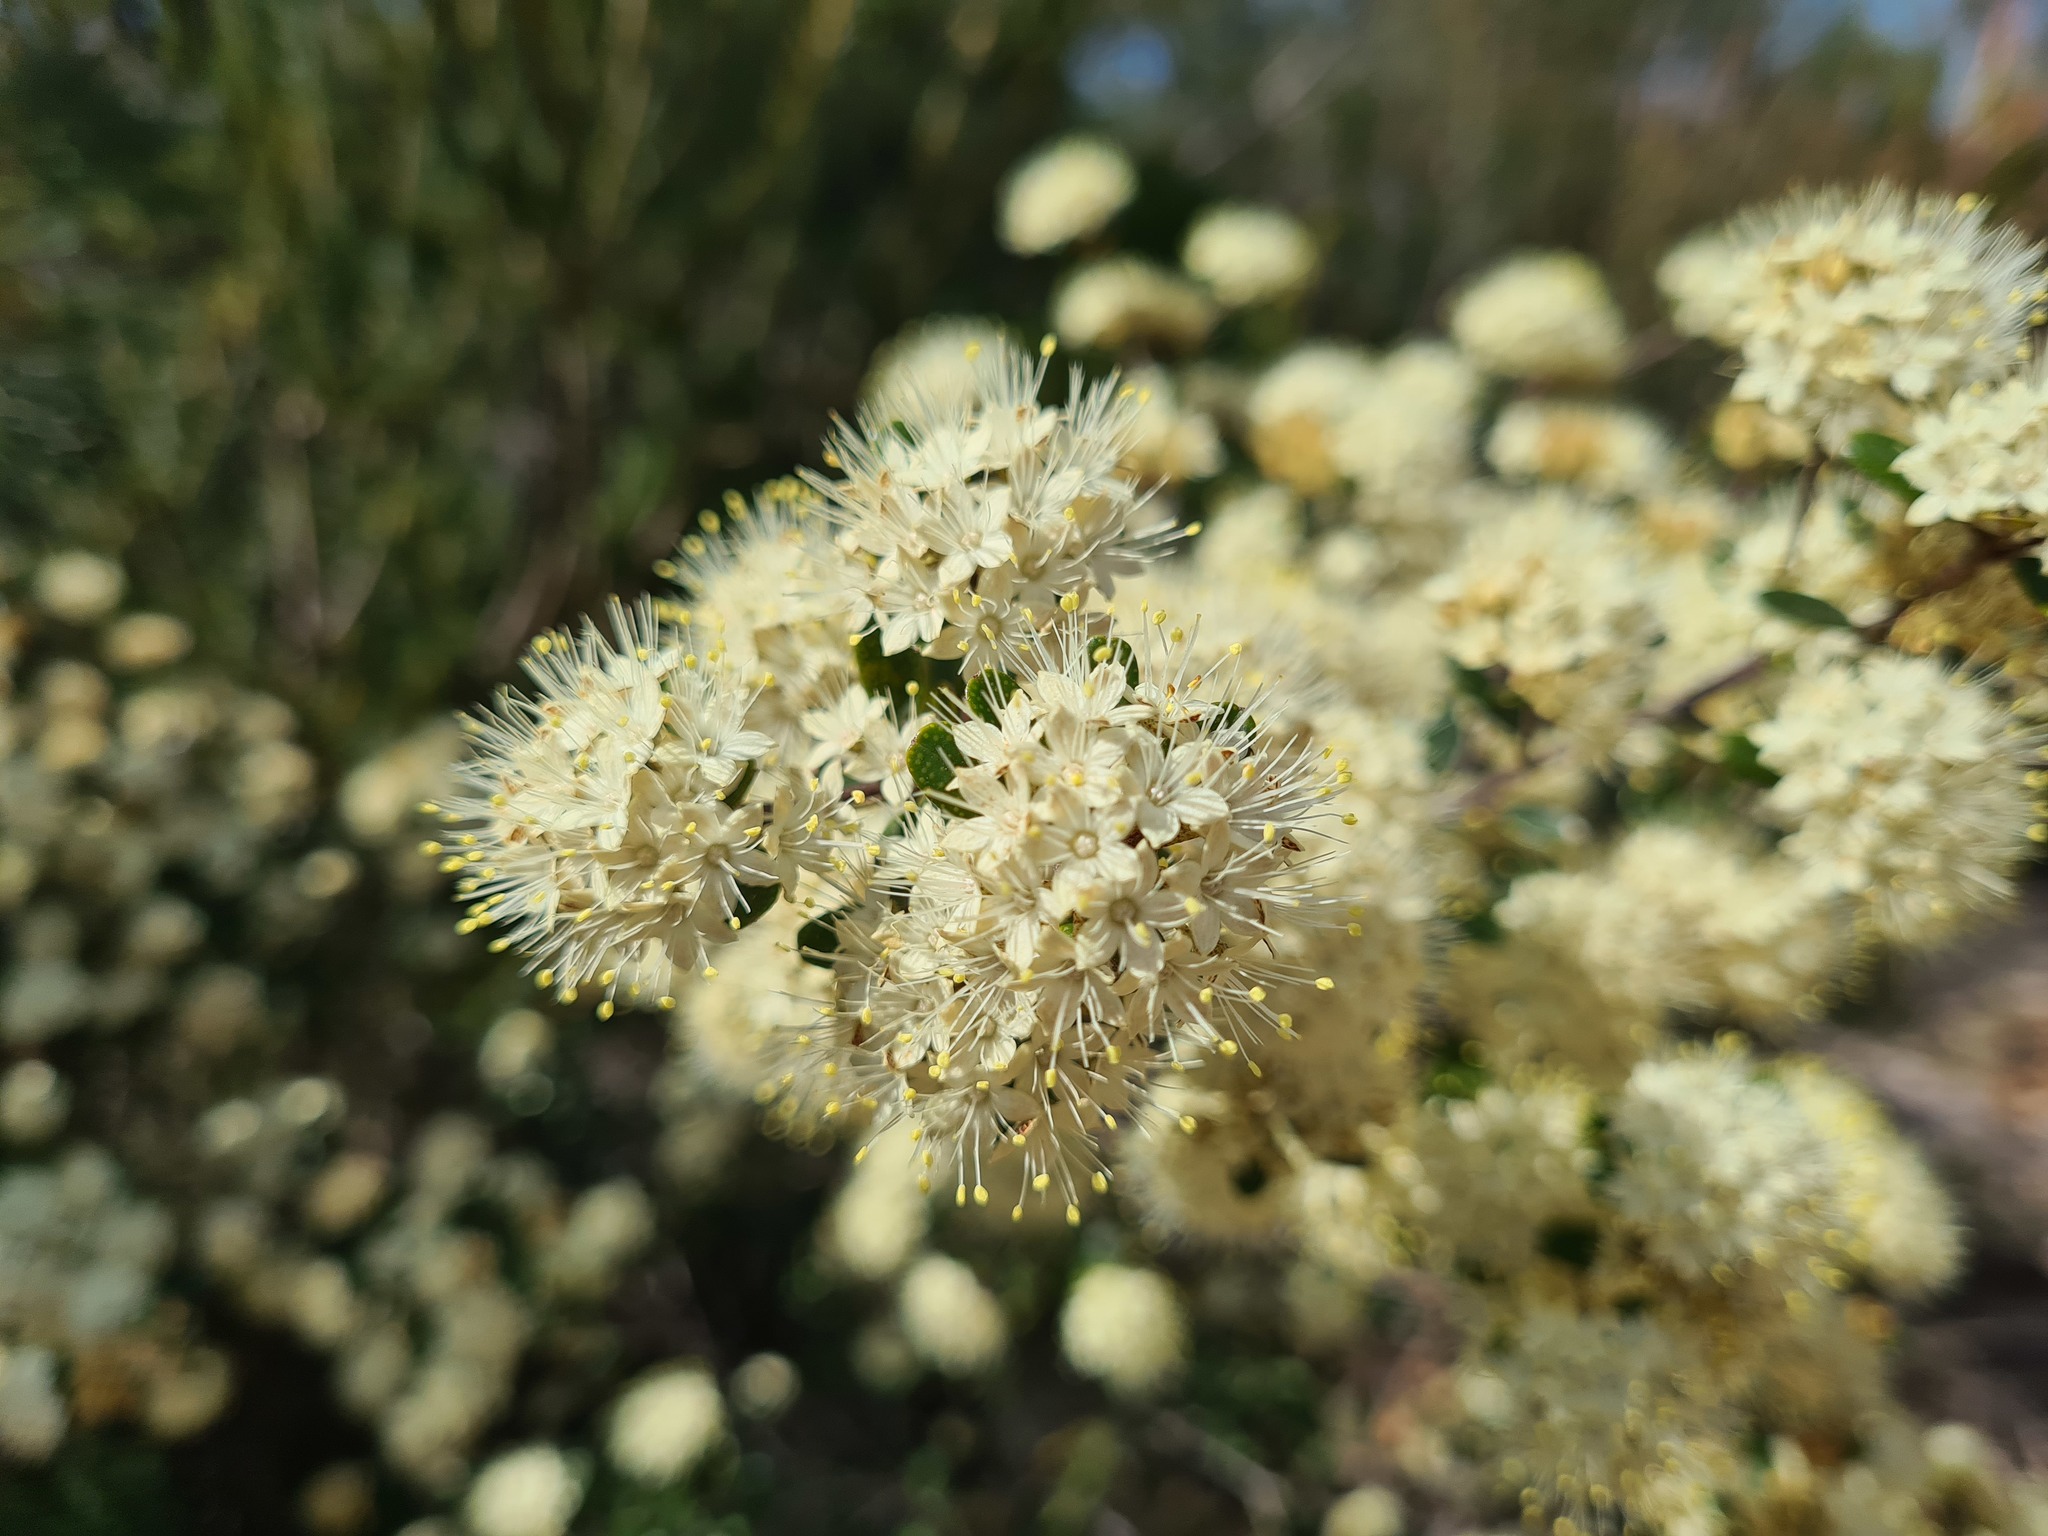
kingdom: Plantae
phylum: Tracheophyta
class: Magnoliopsida
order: Sapindales
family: Rutaceae
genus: Phebalium
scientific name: Phebalium squamulosum
